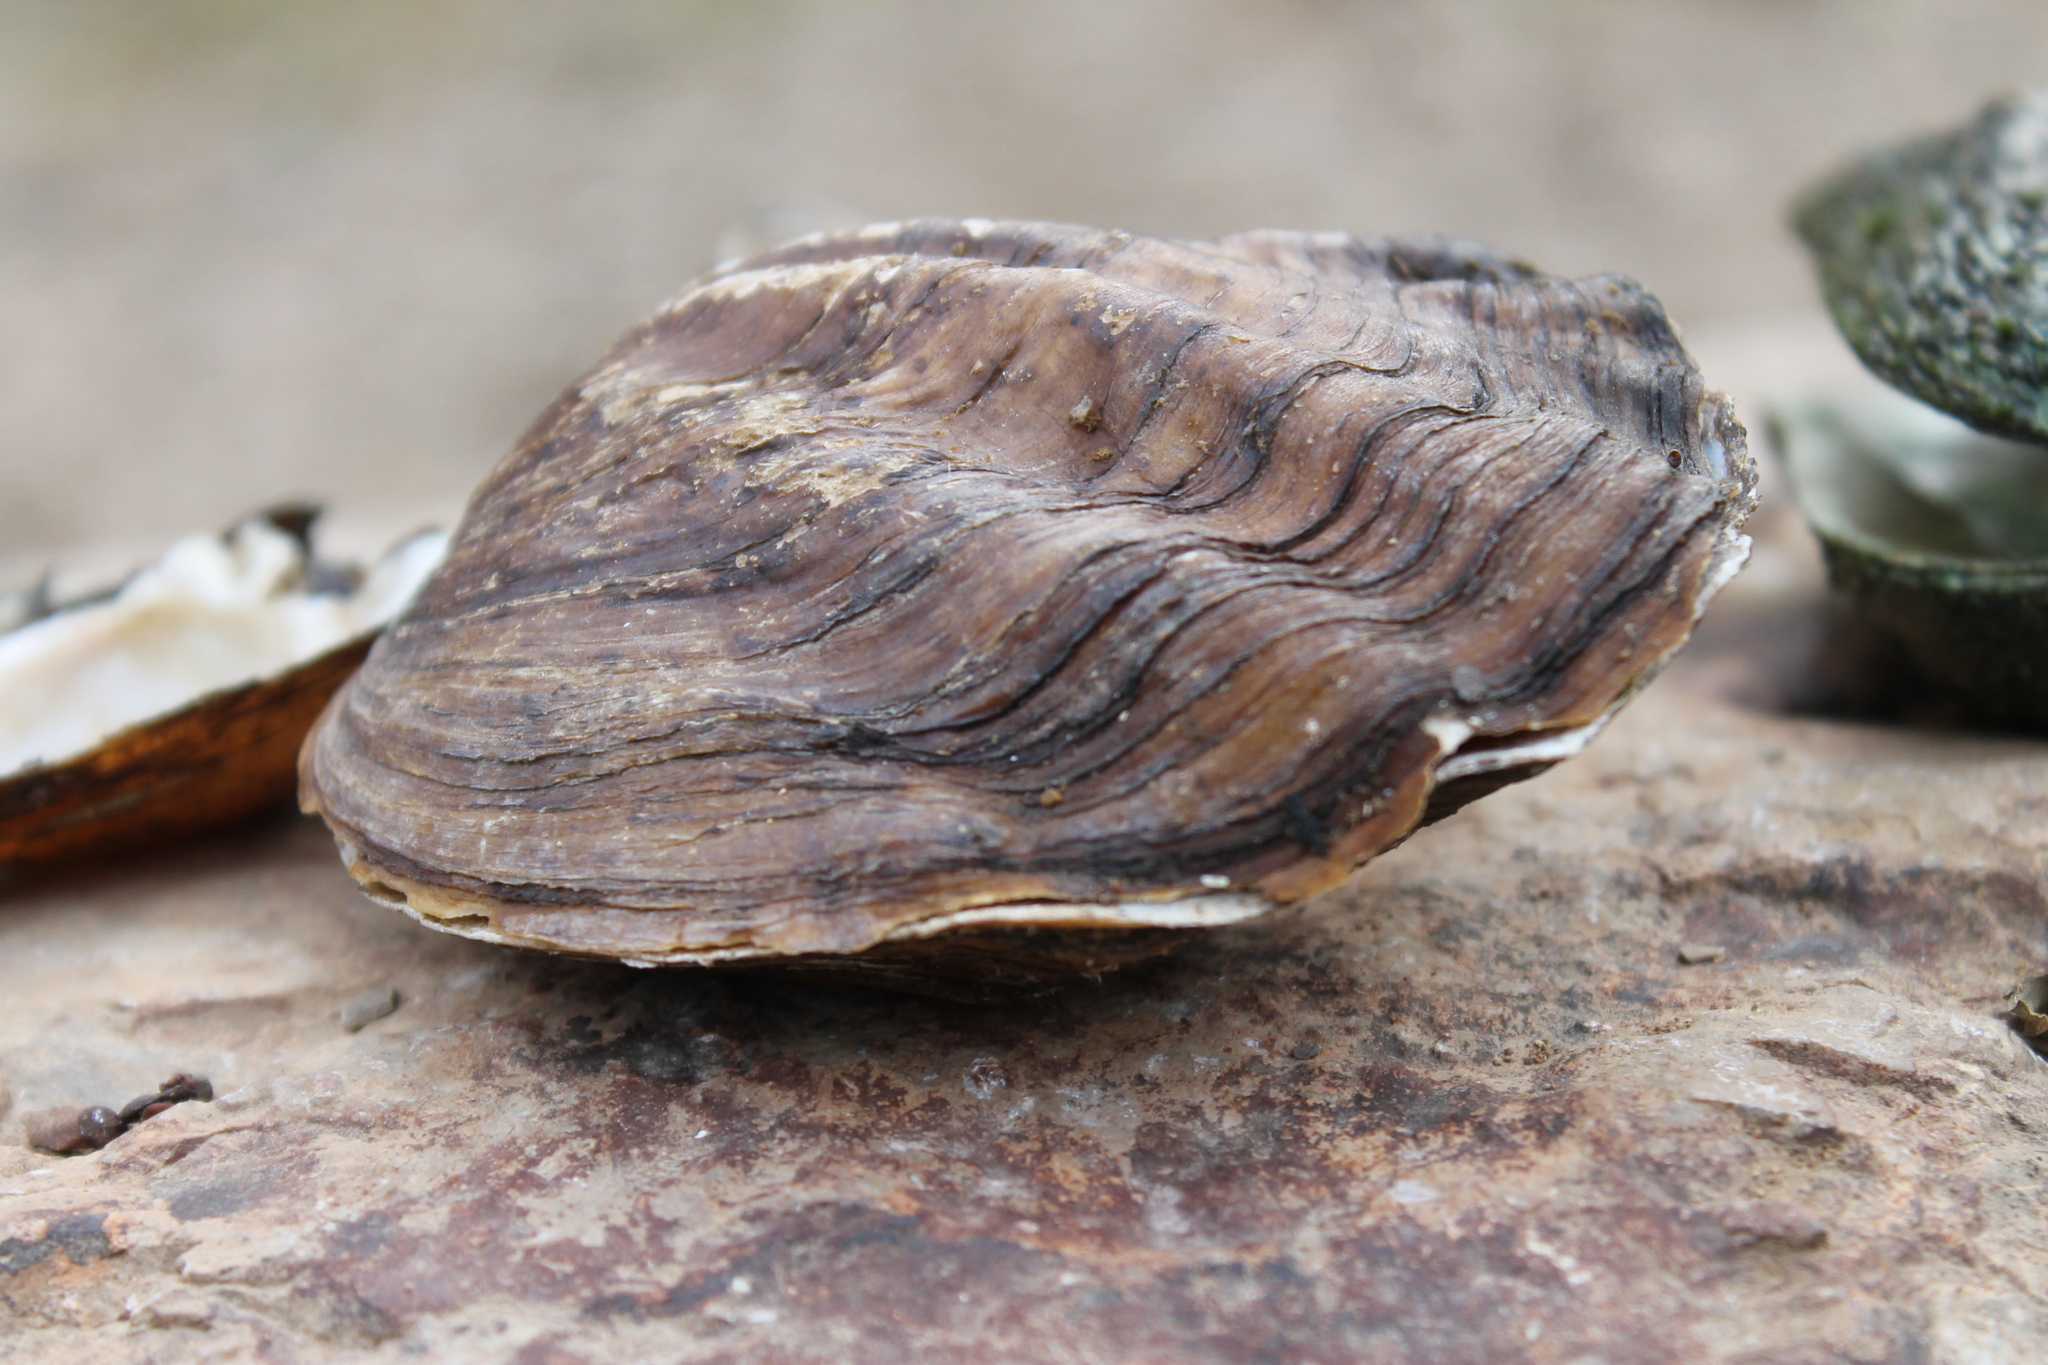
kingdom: Animalia
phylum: Mollusca
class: Bivalvia
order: Unionida
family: Unionidae
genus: Amblema
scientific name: Amblema plicata
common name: Threeridge
